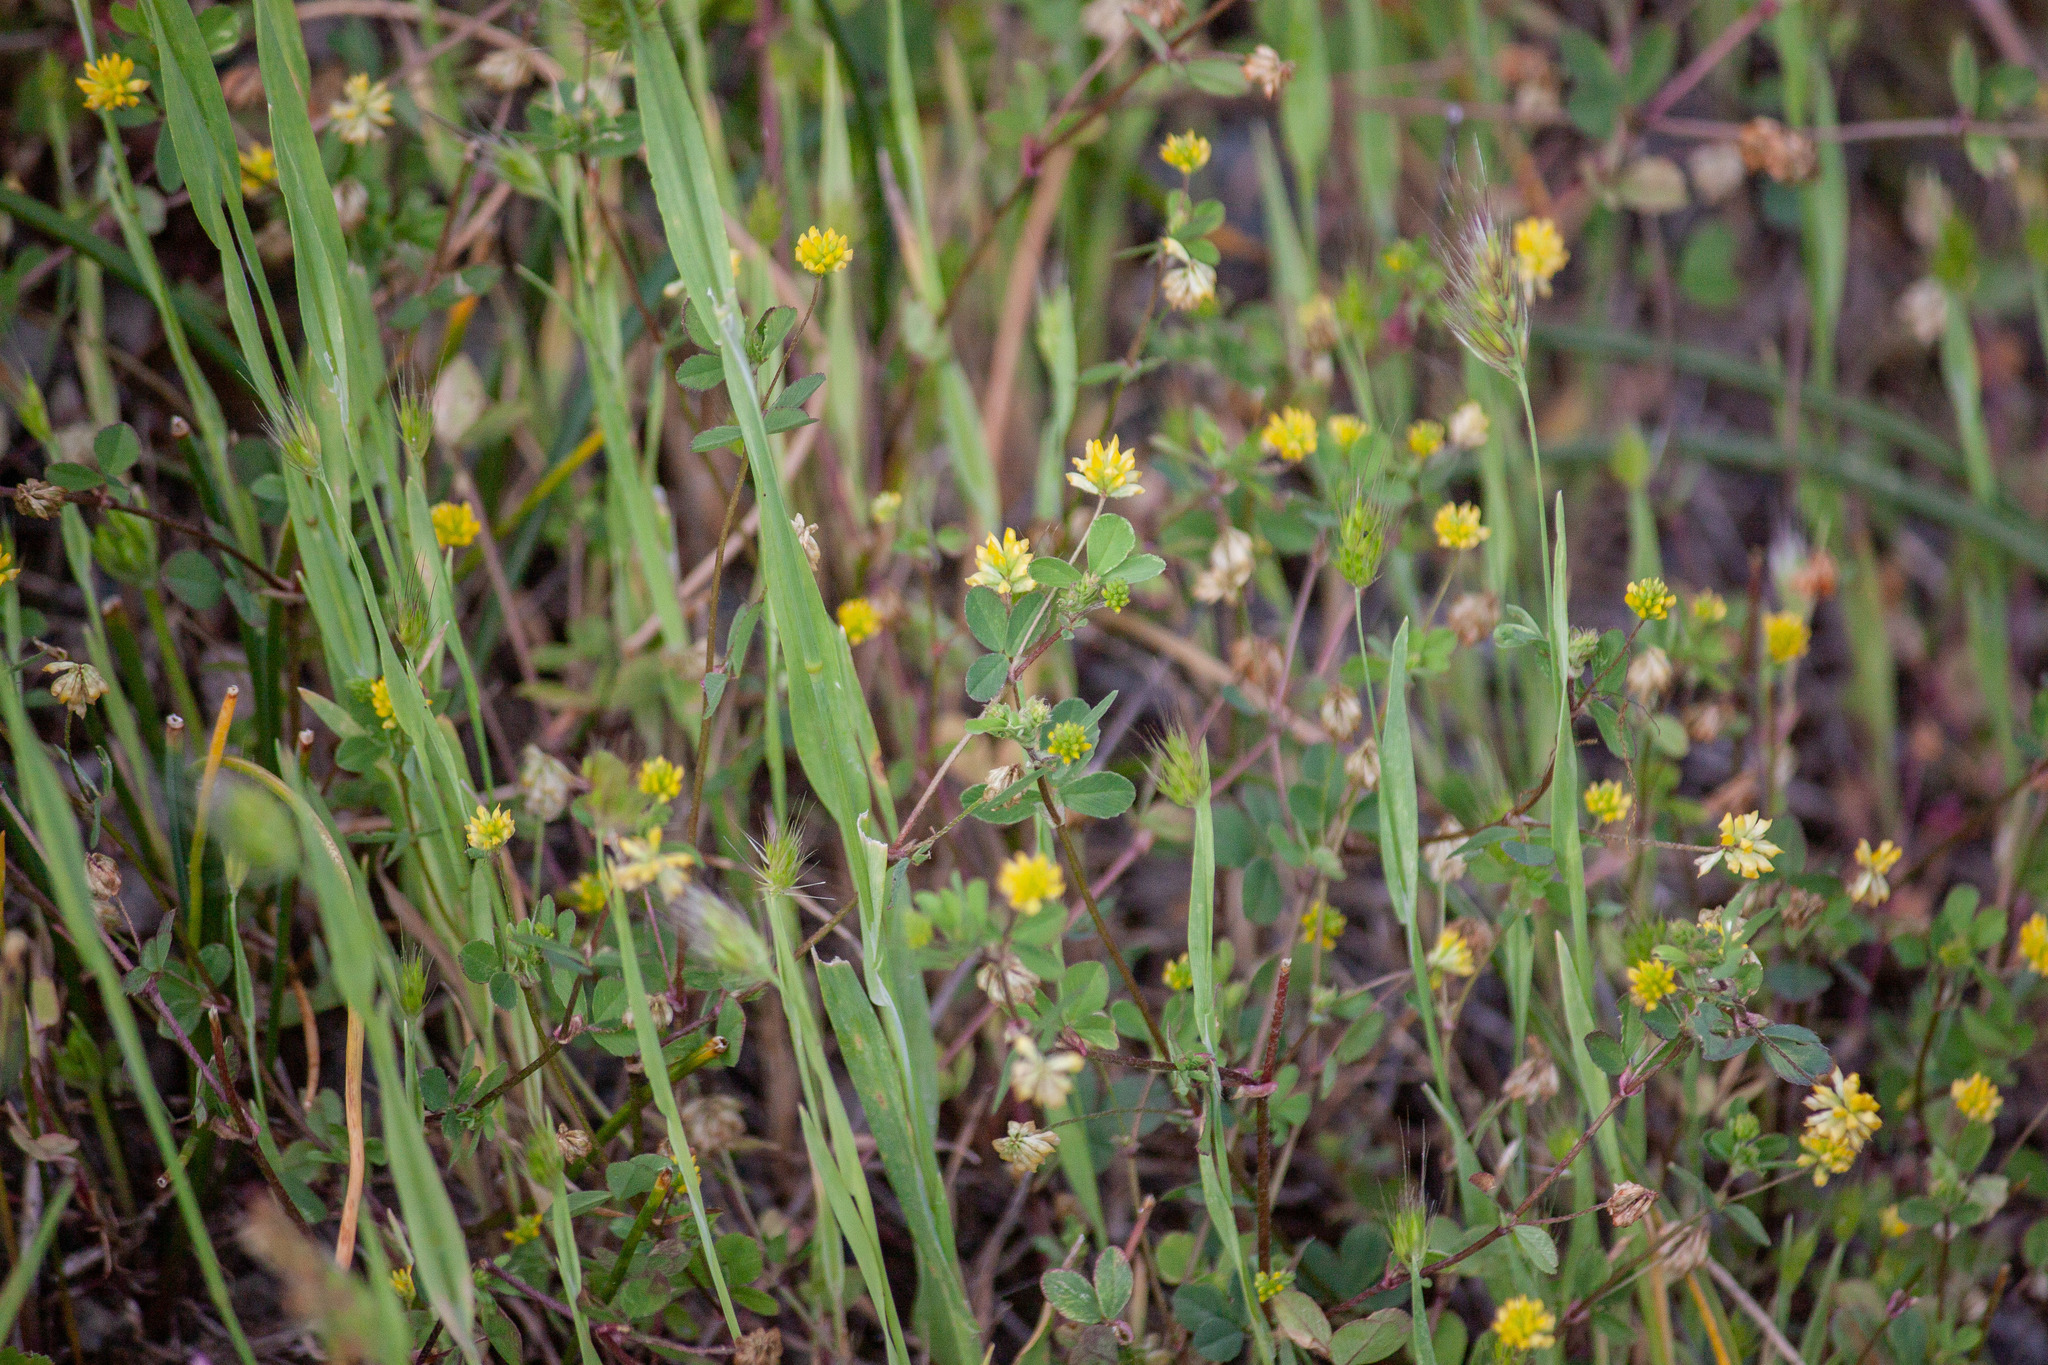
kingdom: Plantae
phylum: Tracheophyta
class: Magnoliopsida
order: Fabales
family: Fabaceae
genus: Trifolium
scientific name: Trifolium dubium
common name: Suckling clover
